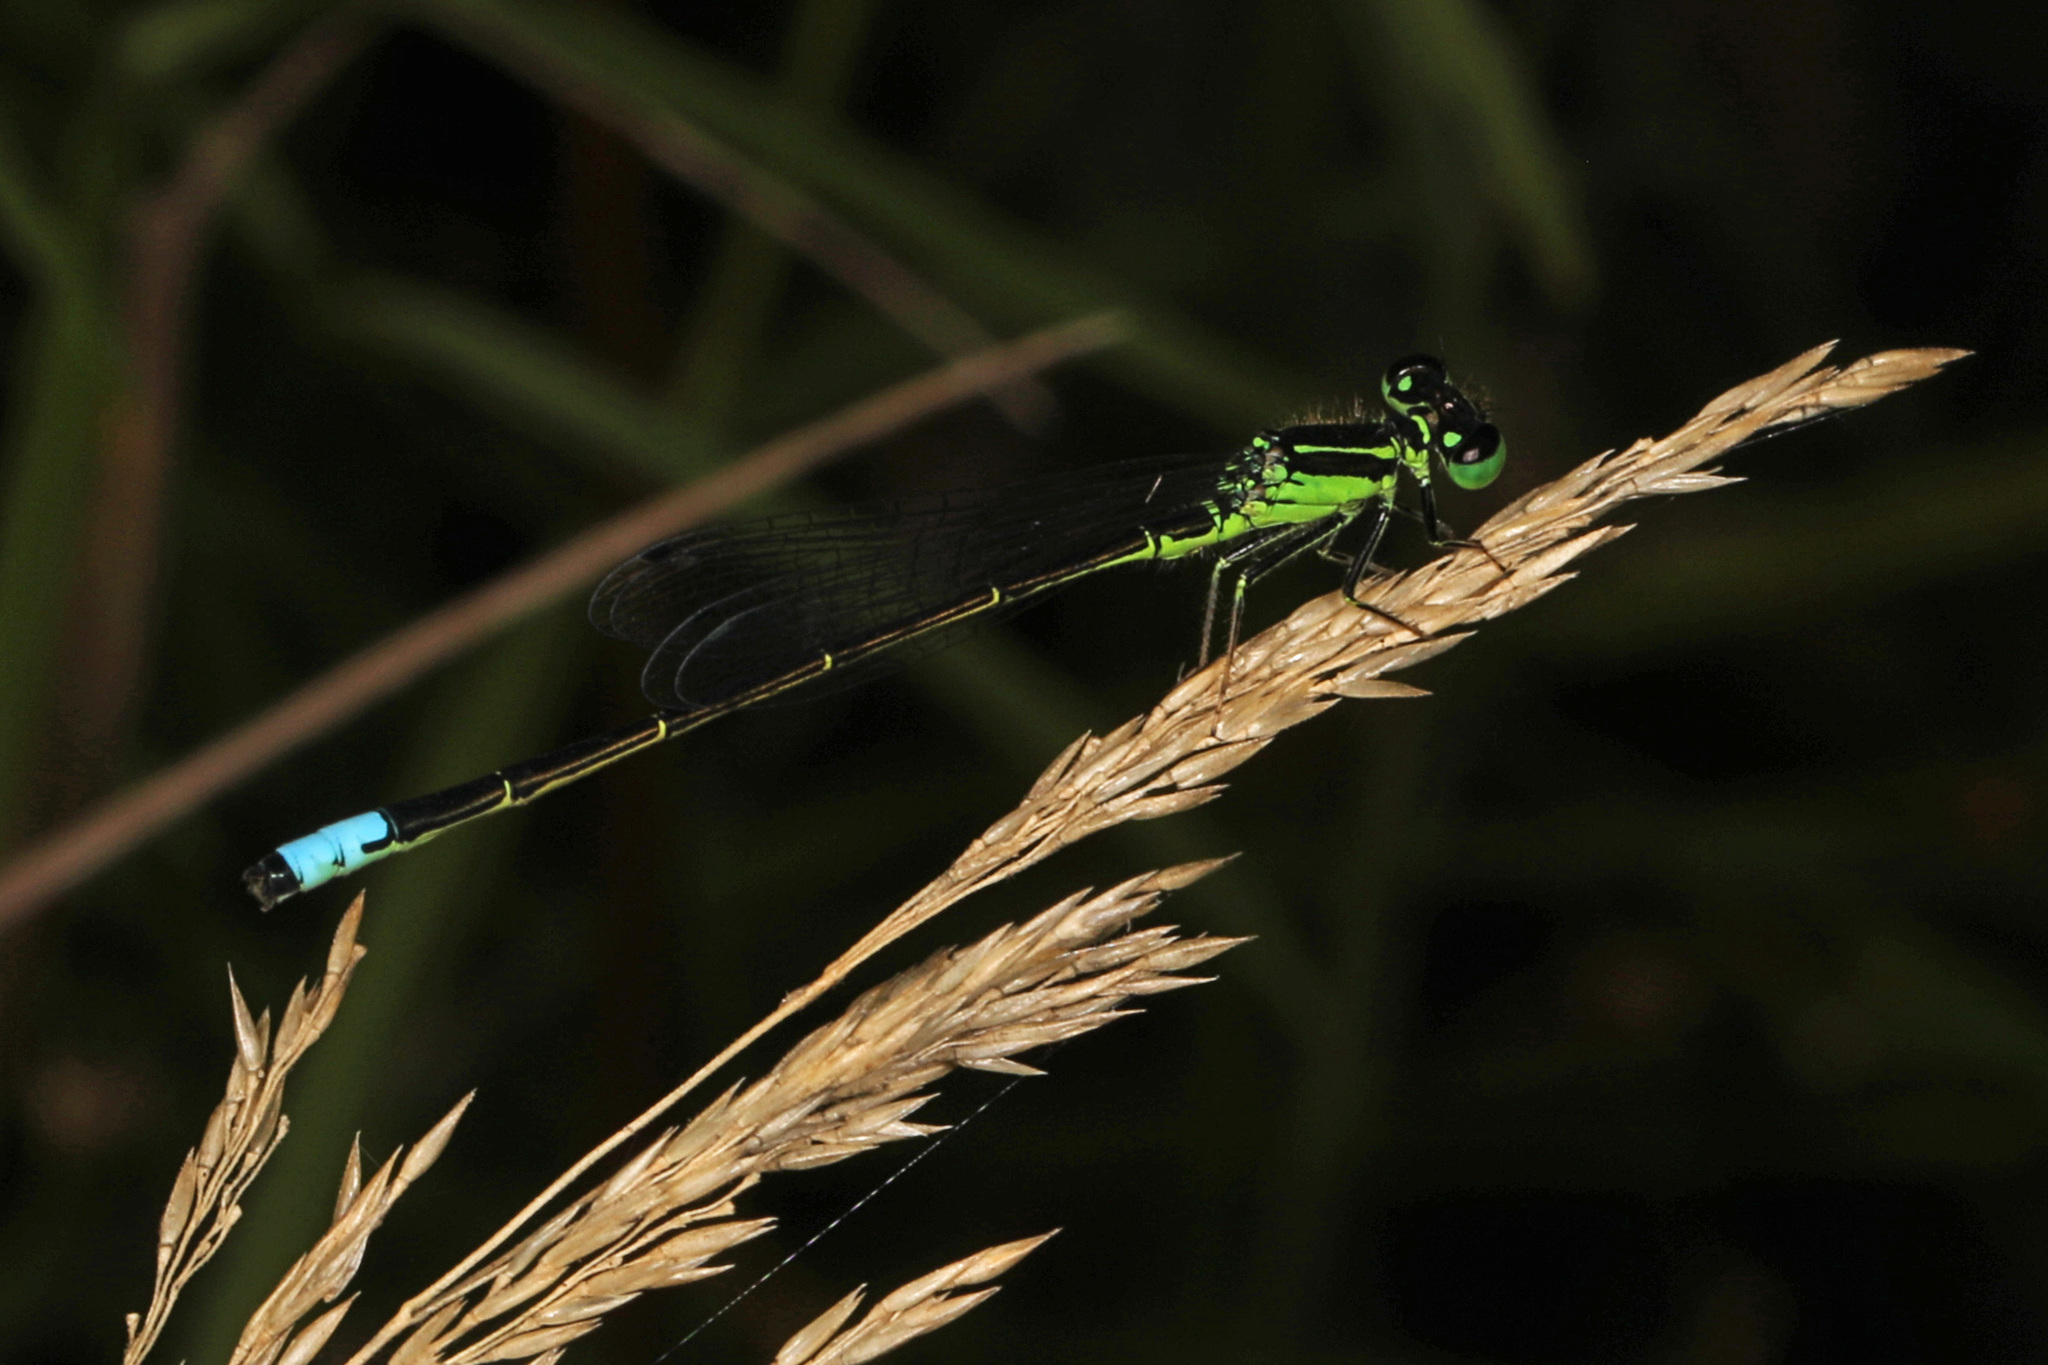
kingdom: Animalia
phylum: Arthropoda
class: Insecta
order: Odonata
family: Coenagrionidae
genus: Ischnura
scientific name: Ischnura verticalis
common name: Eastern forktail
